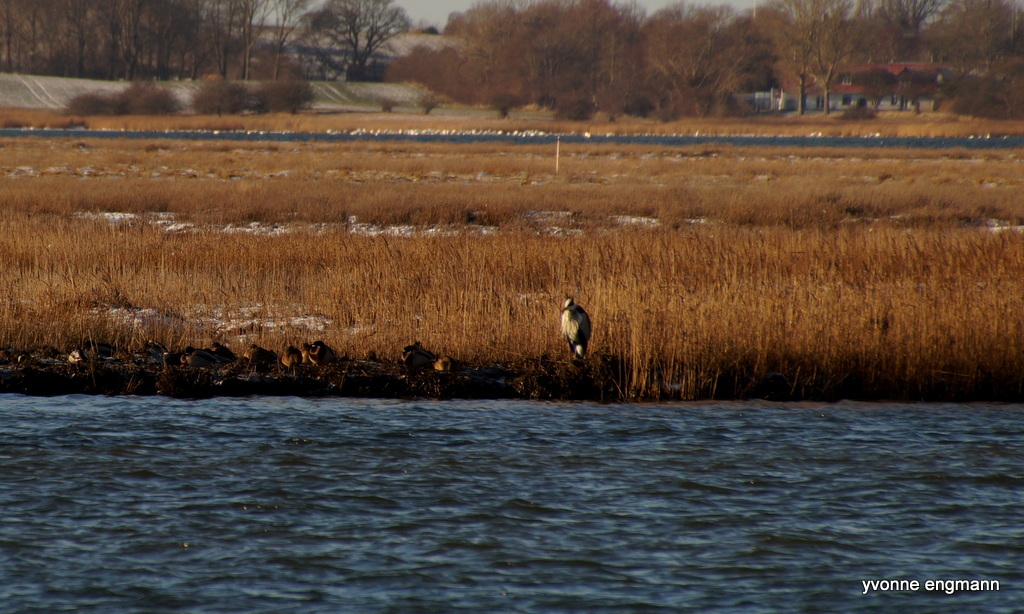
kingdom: Animalia
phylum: Chordata
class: Aves
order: Pelecaniformes
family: Ardeidae
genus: Ardea
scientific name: Ardea cinerea
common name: Grey heron
